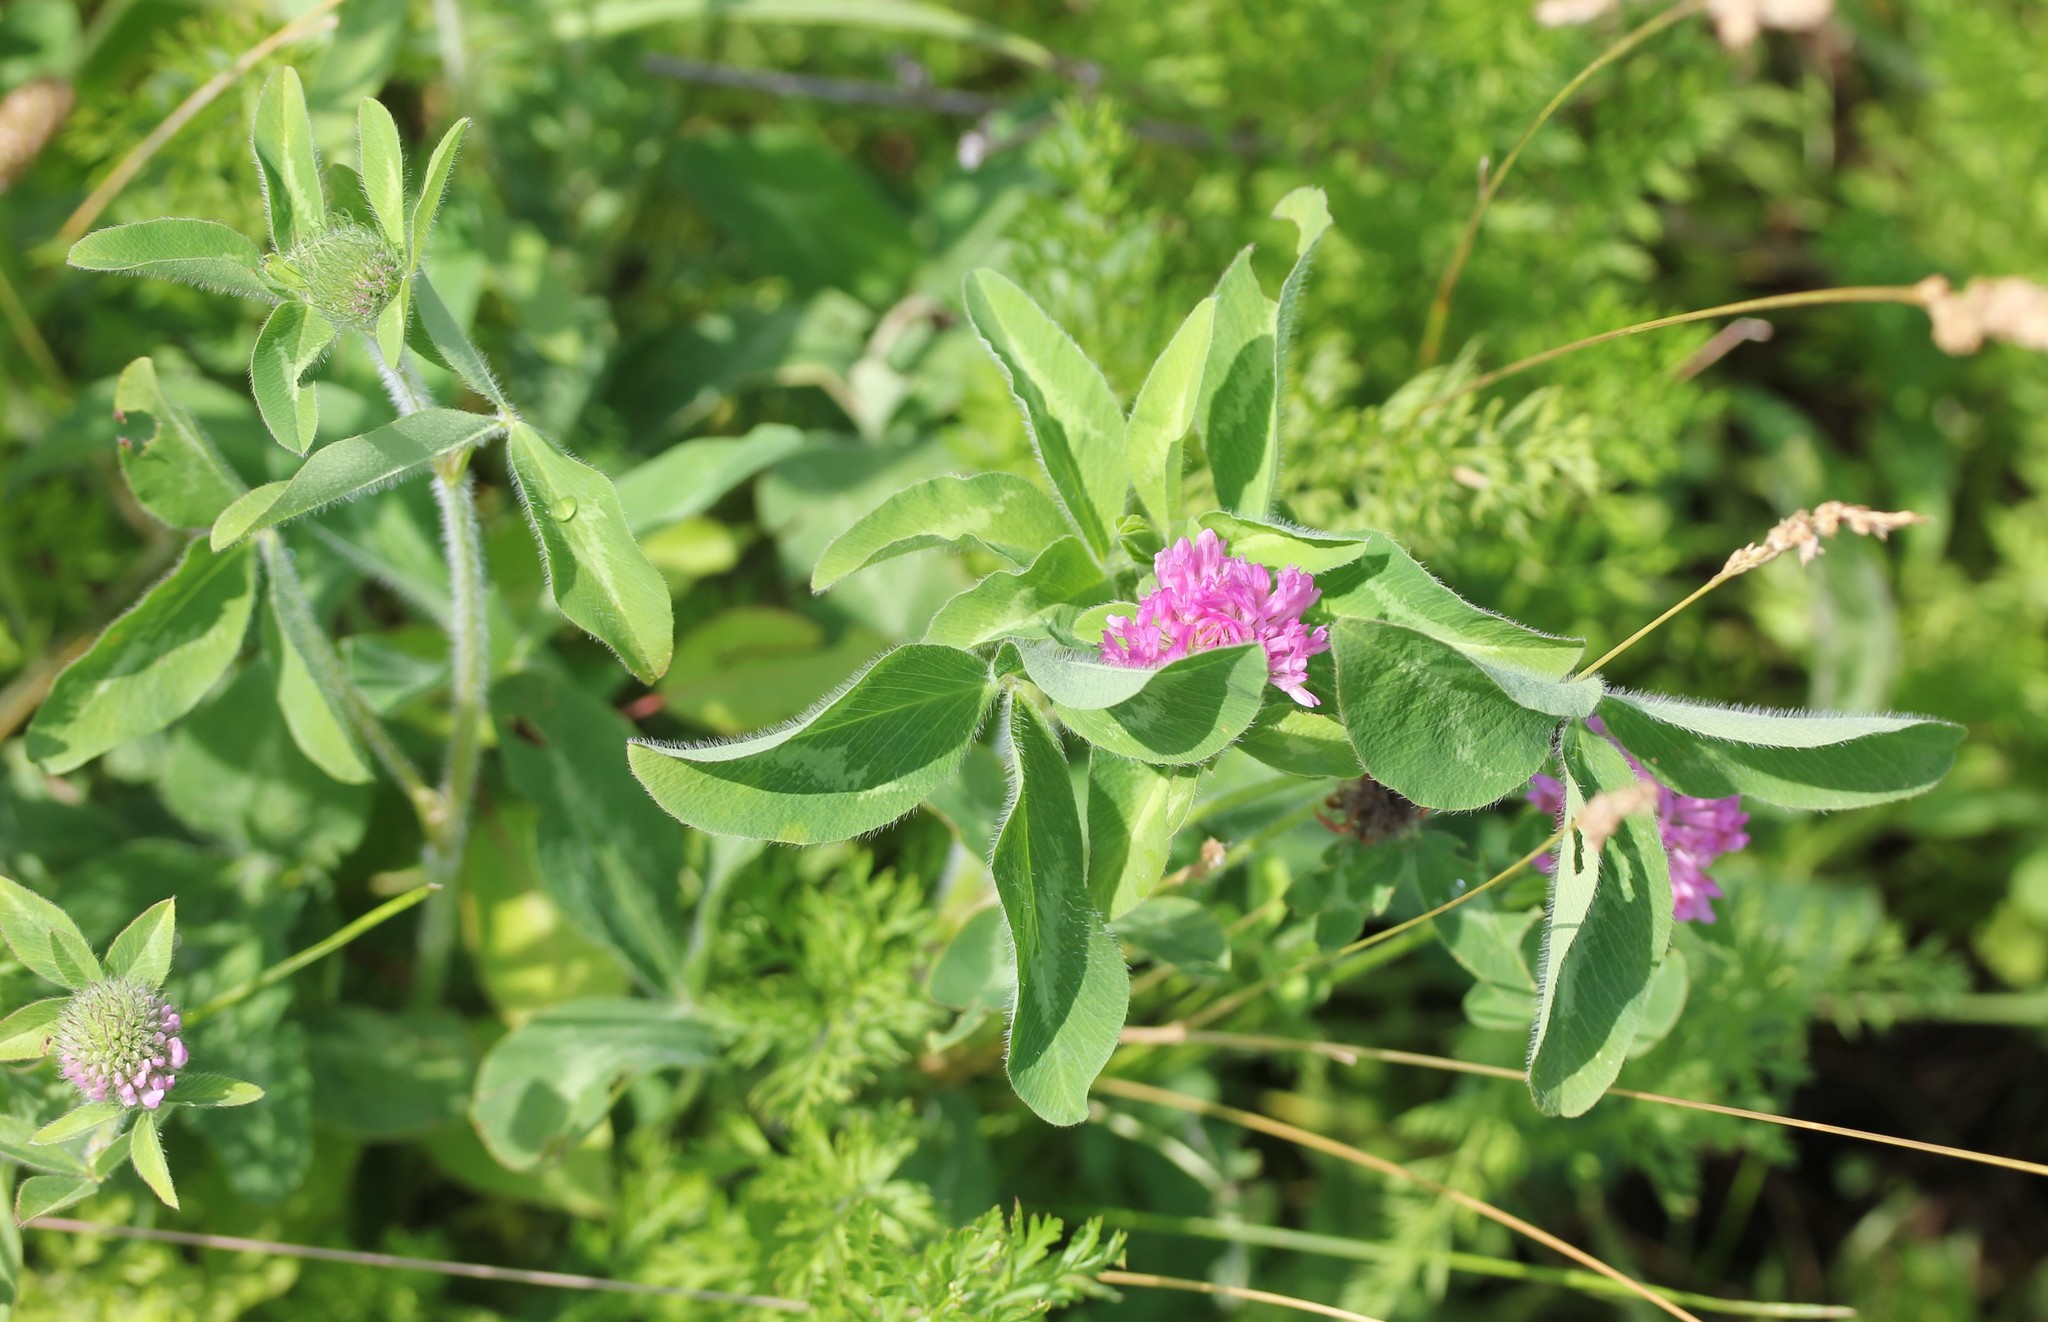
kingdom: Plantae
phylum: Tracheophyta
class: Magnoliopsida
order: Fabales
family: Fabaceae
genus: Trifolium
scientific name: Trifolium pratense
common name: Red clover
